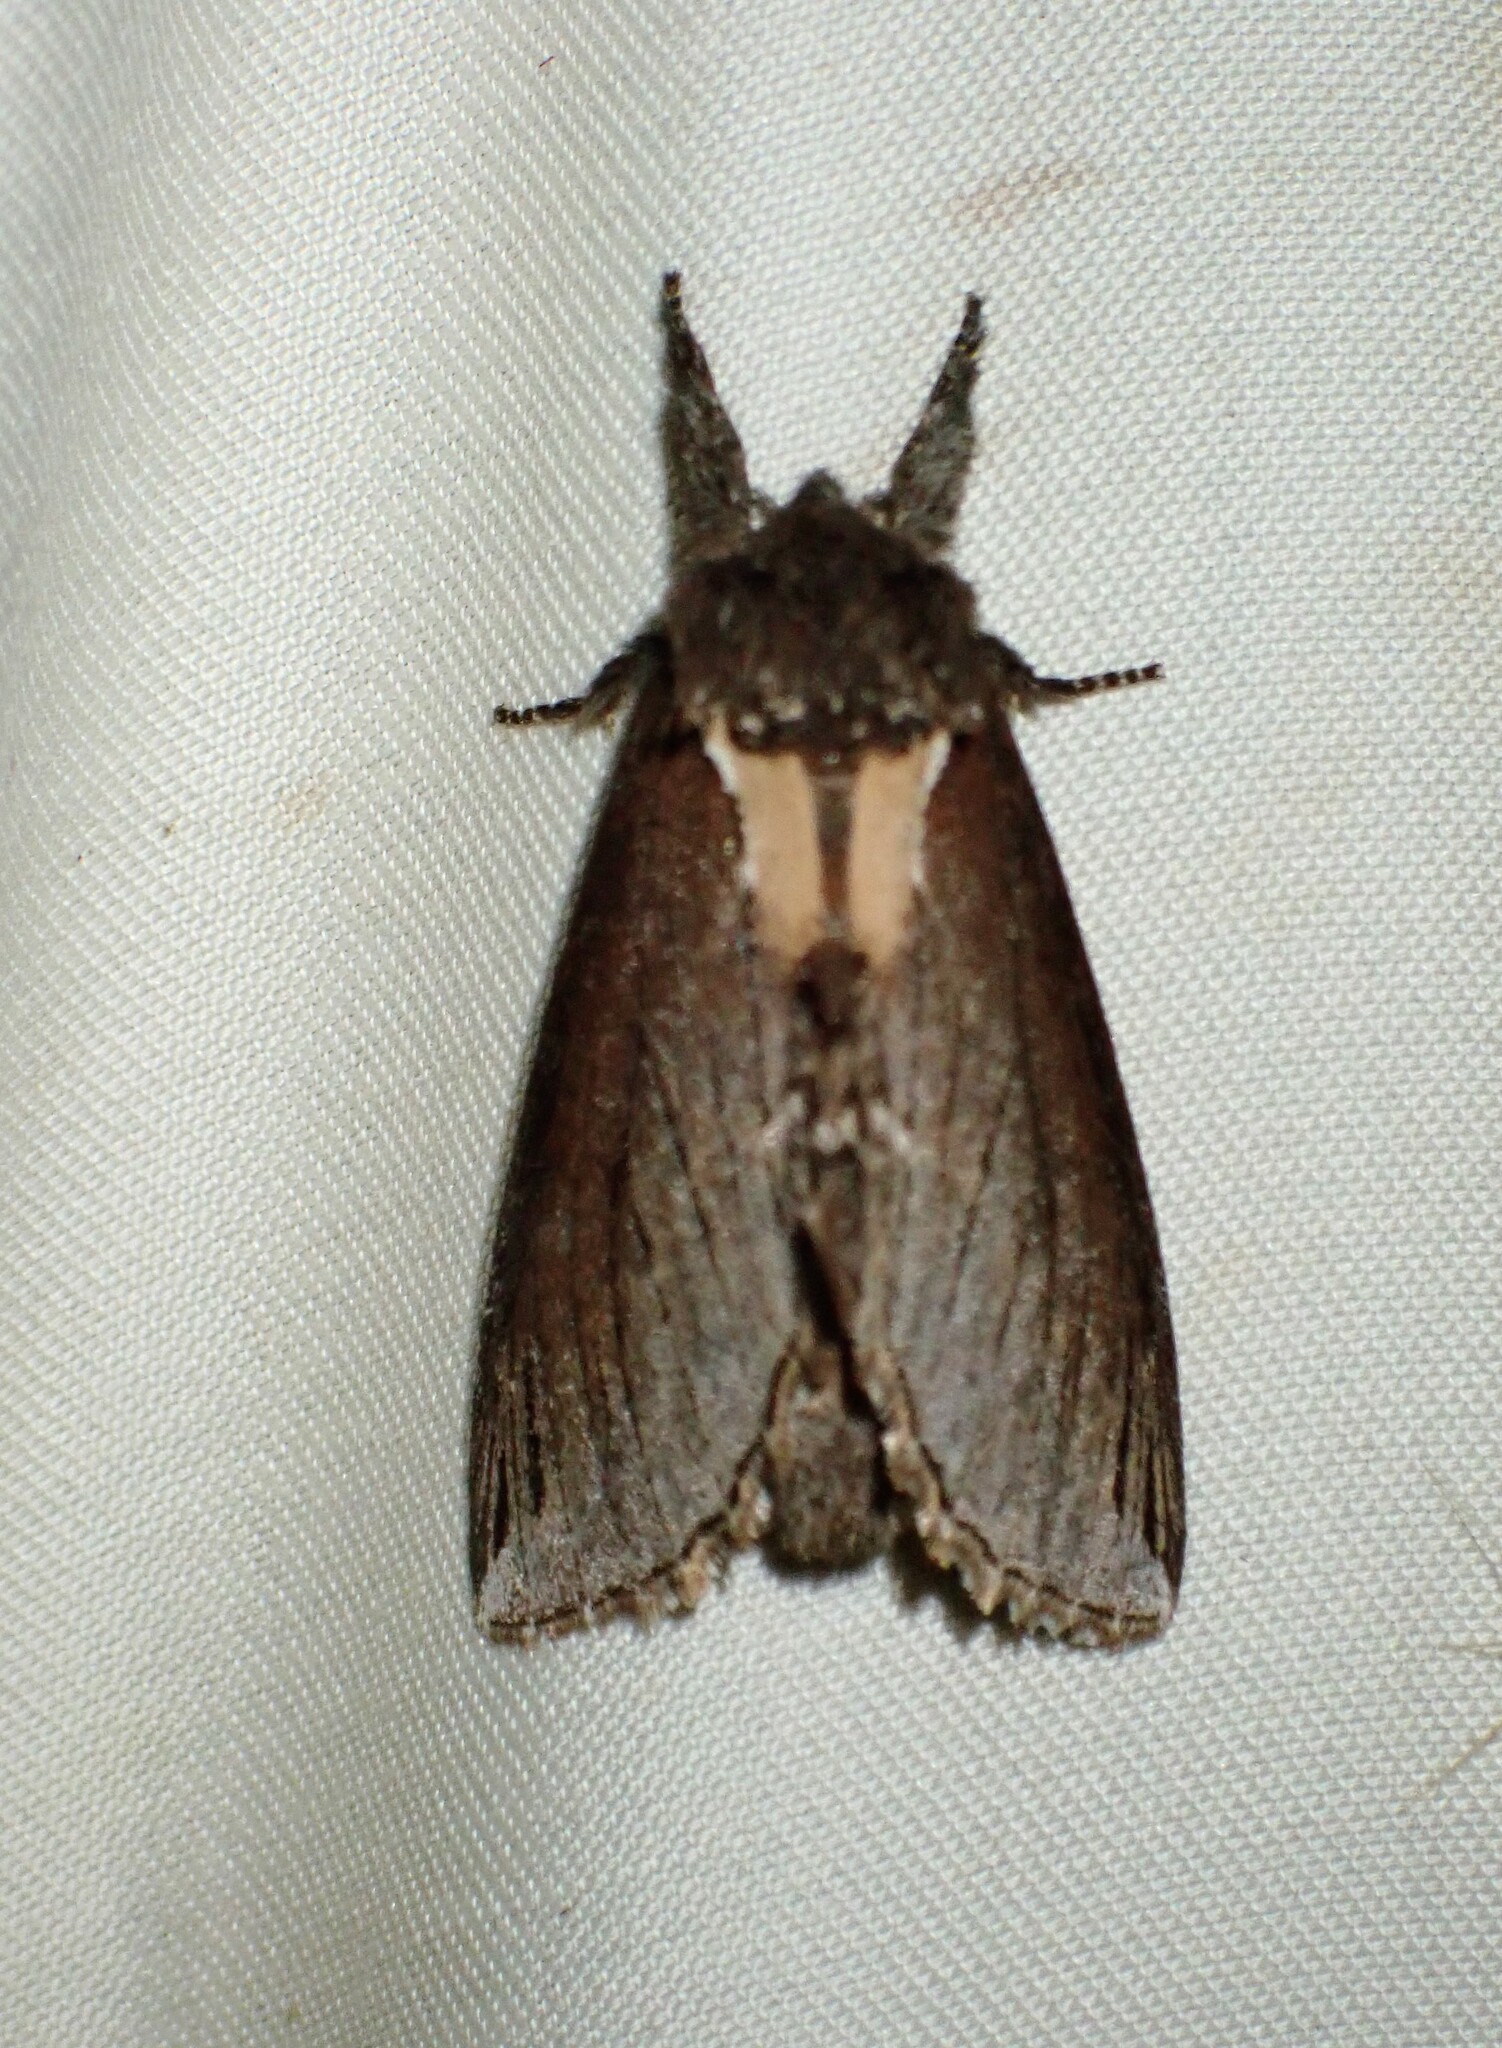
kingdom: Animalia
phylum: Arthropoda
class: Insecta
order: Lepidoptera
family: Notodontidae
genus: Pheosidea
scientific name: Pheosidea elegans
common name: Elegant prominent
